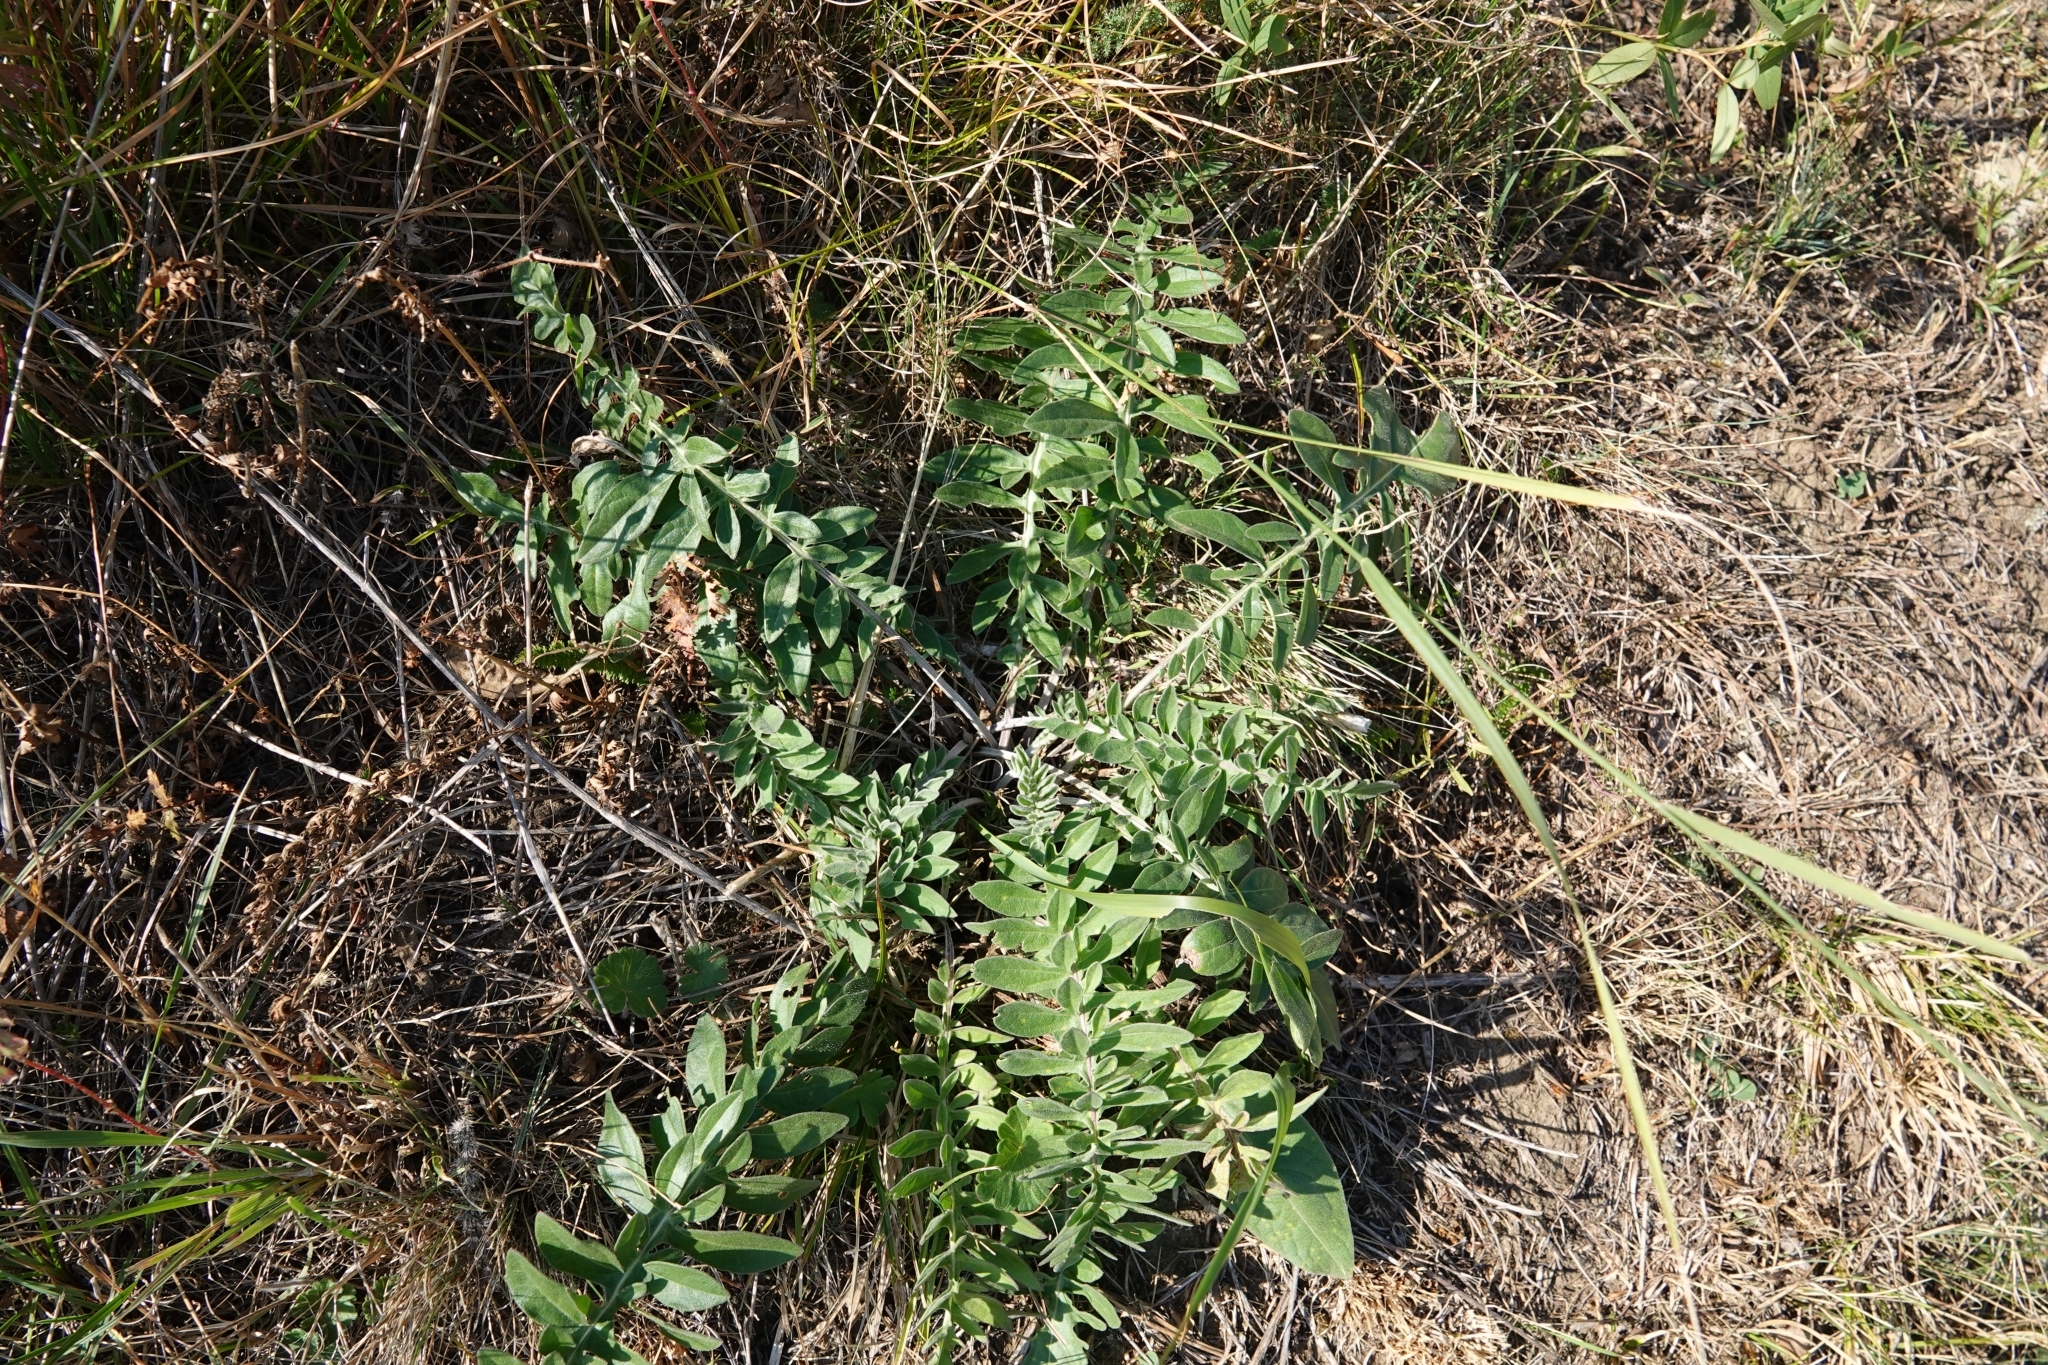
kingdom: Plantae
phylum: Tracheophyta
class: Magnoliopsida
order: Asterales
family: Asteraceae
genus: Centaurea
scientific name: Centaurea scabiosa
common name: Greater knapweed
